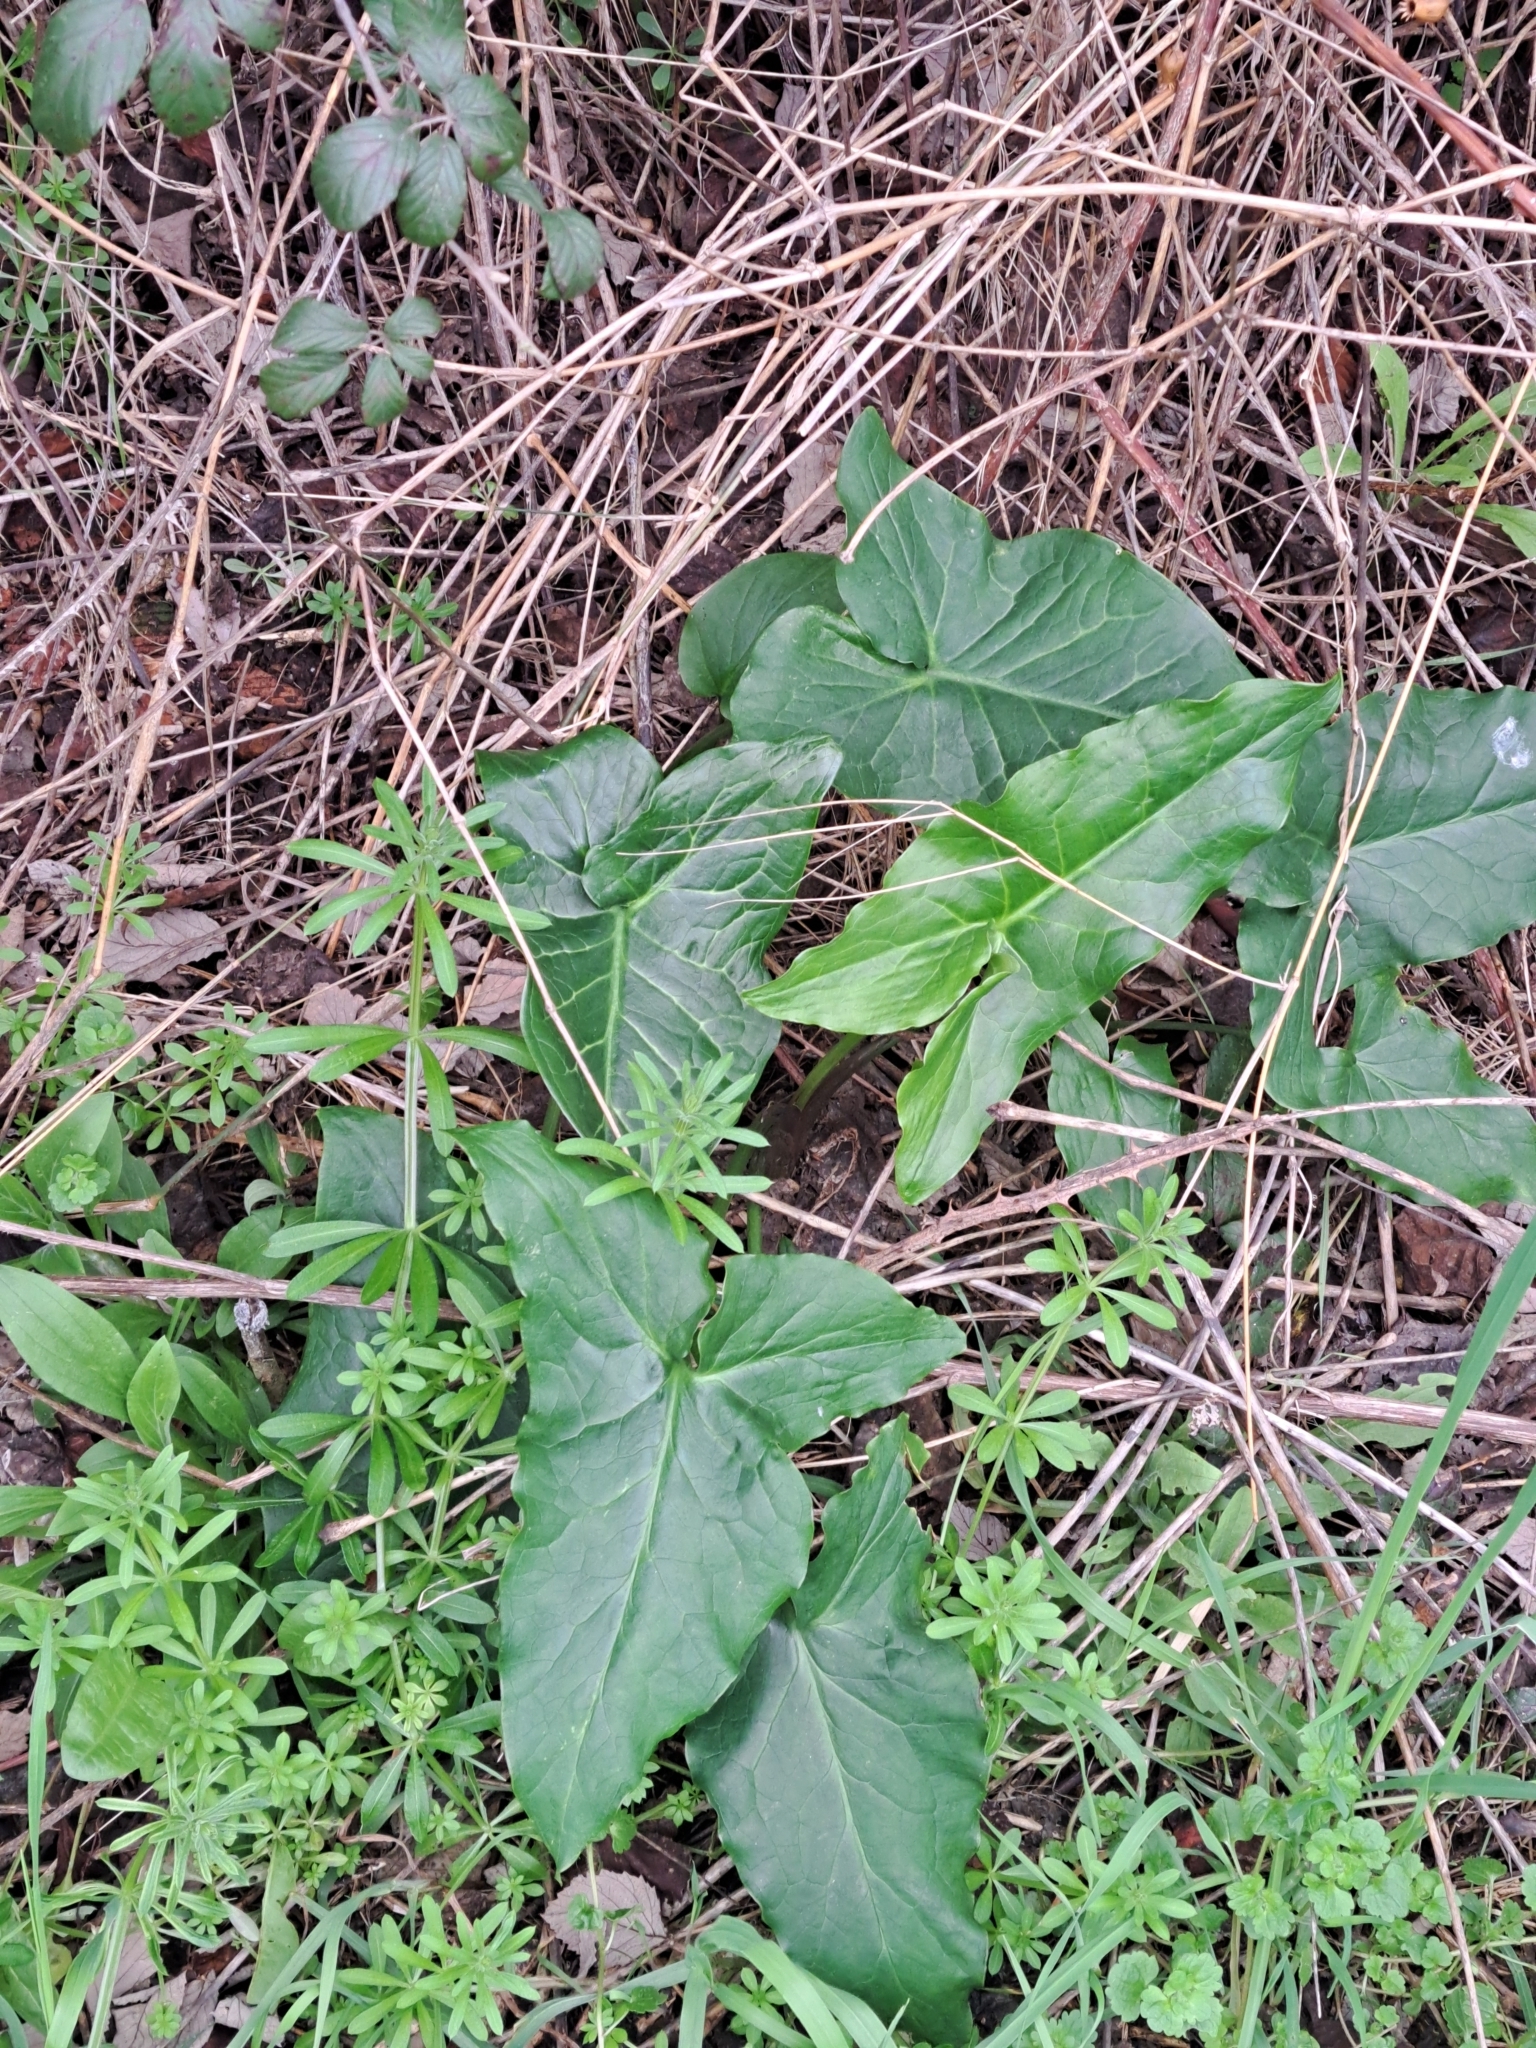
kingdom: Plantae
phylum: Tracheophyta
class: Liliopsida
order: Alismatales
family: Araceae
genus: Arum
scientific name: Arum italicum
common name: Italian lords-and-ladies
